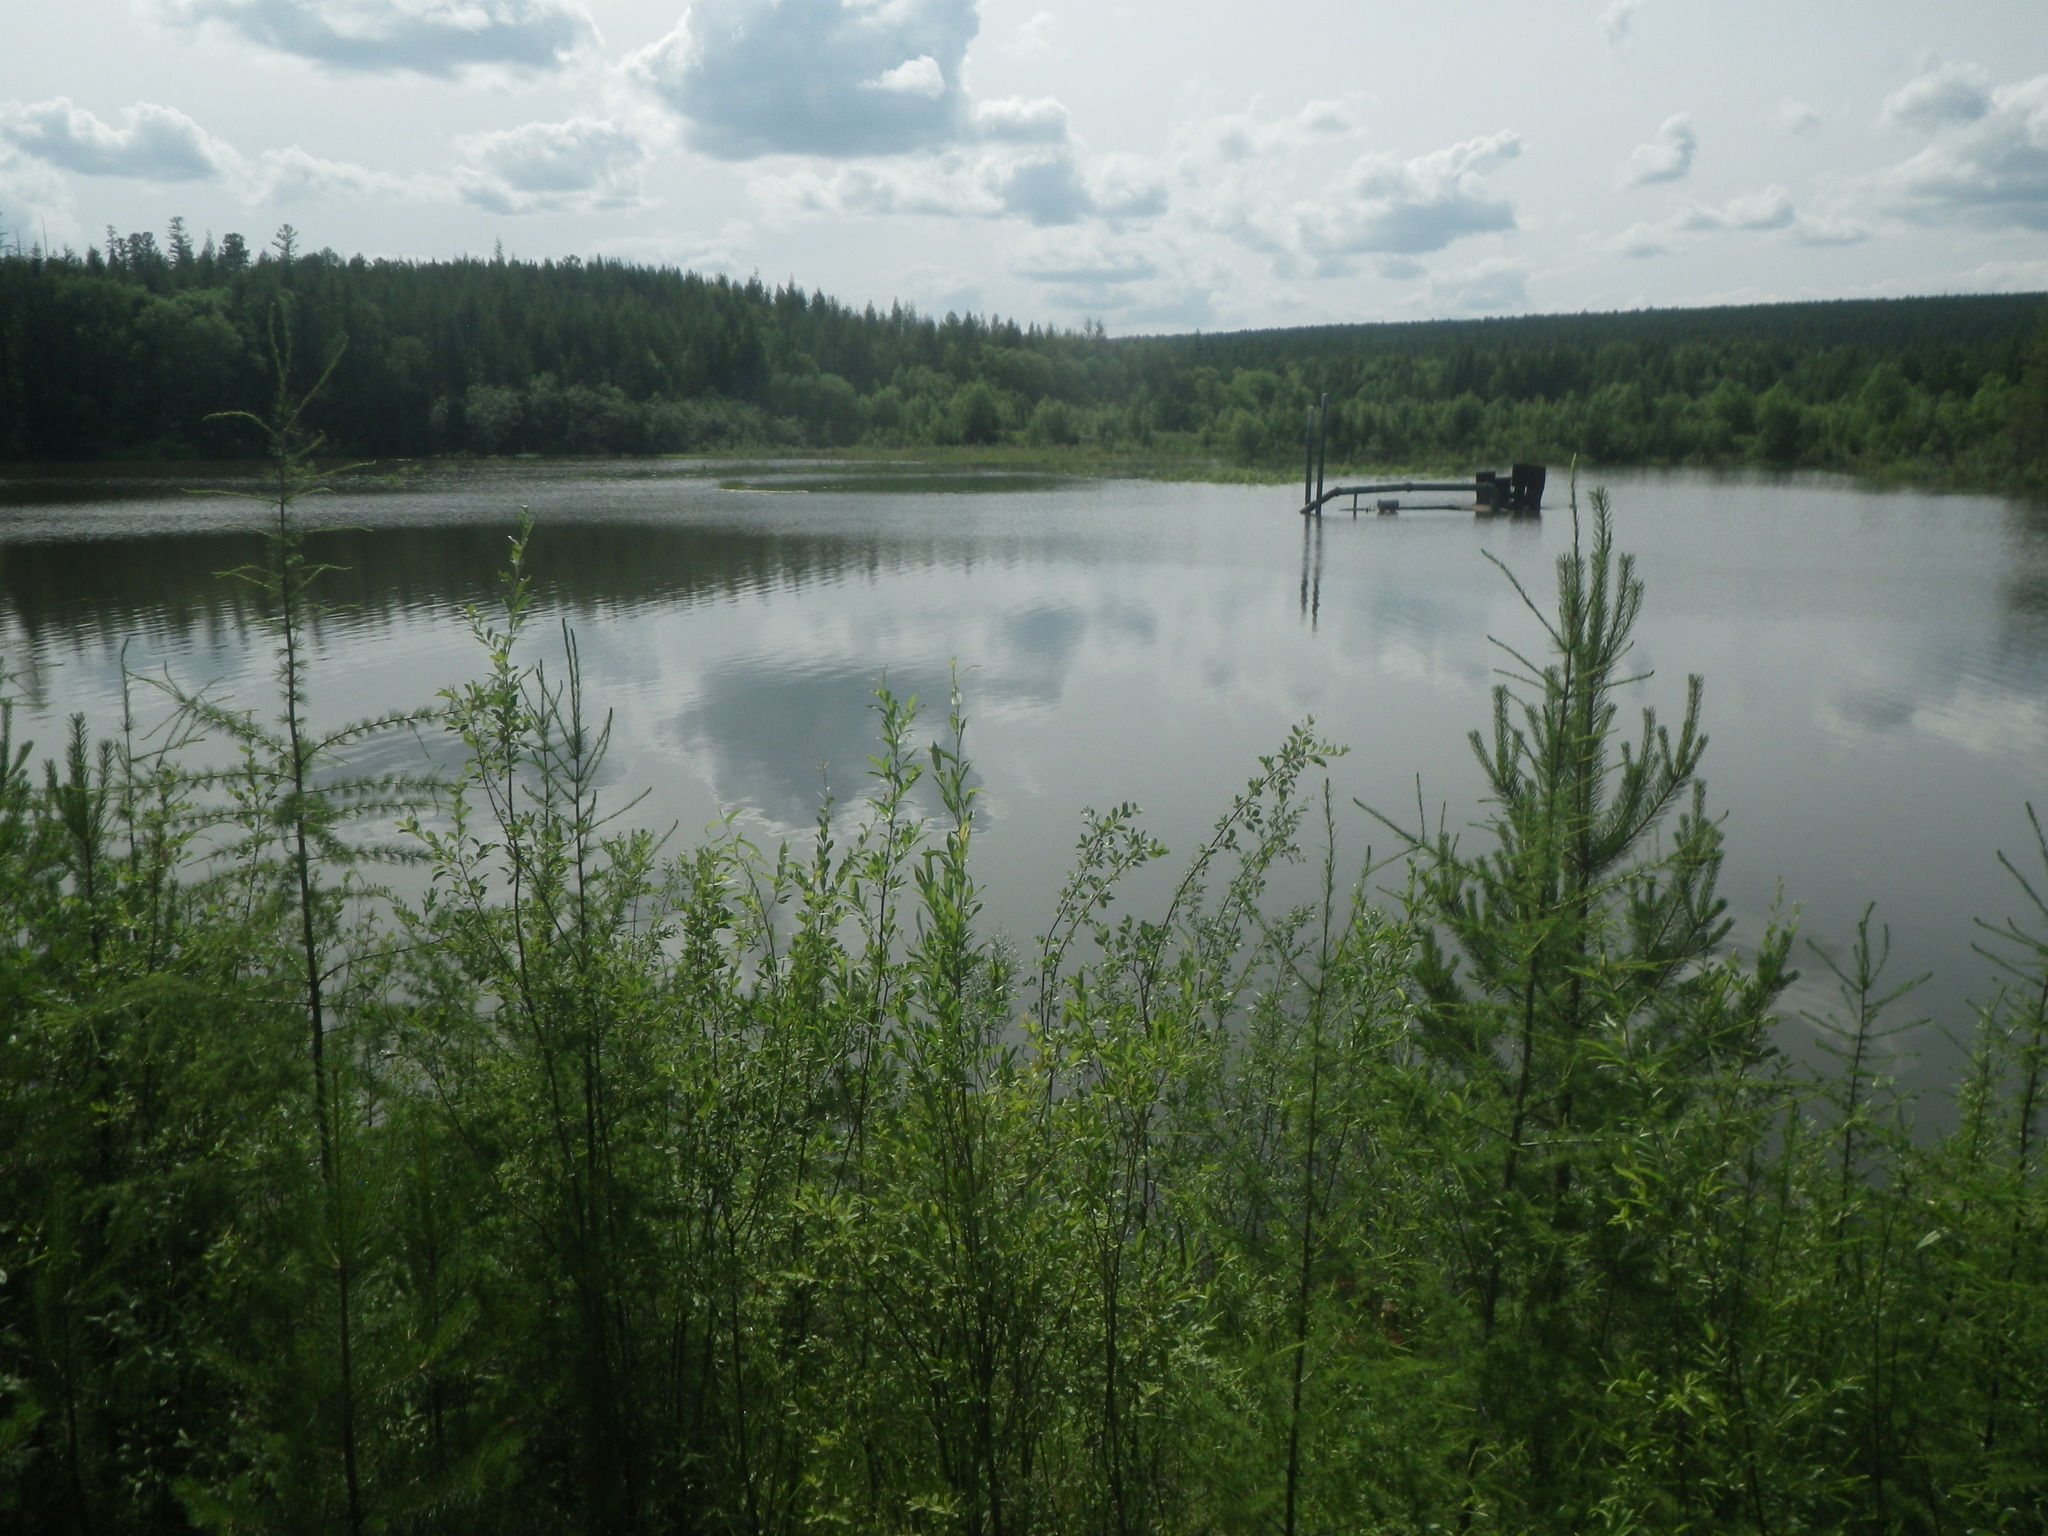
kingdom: Plantae
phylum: Tracheophyta
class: Pinopsida
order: Pinales
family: Pinaceae
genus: Pinus
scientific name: Pinus sylvestris
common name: Scots pine
